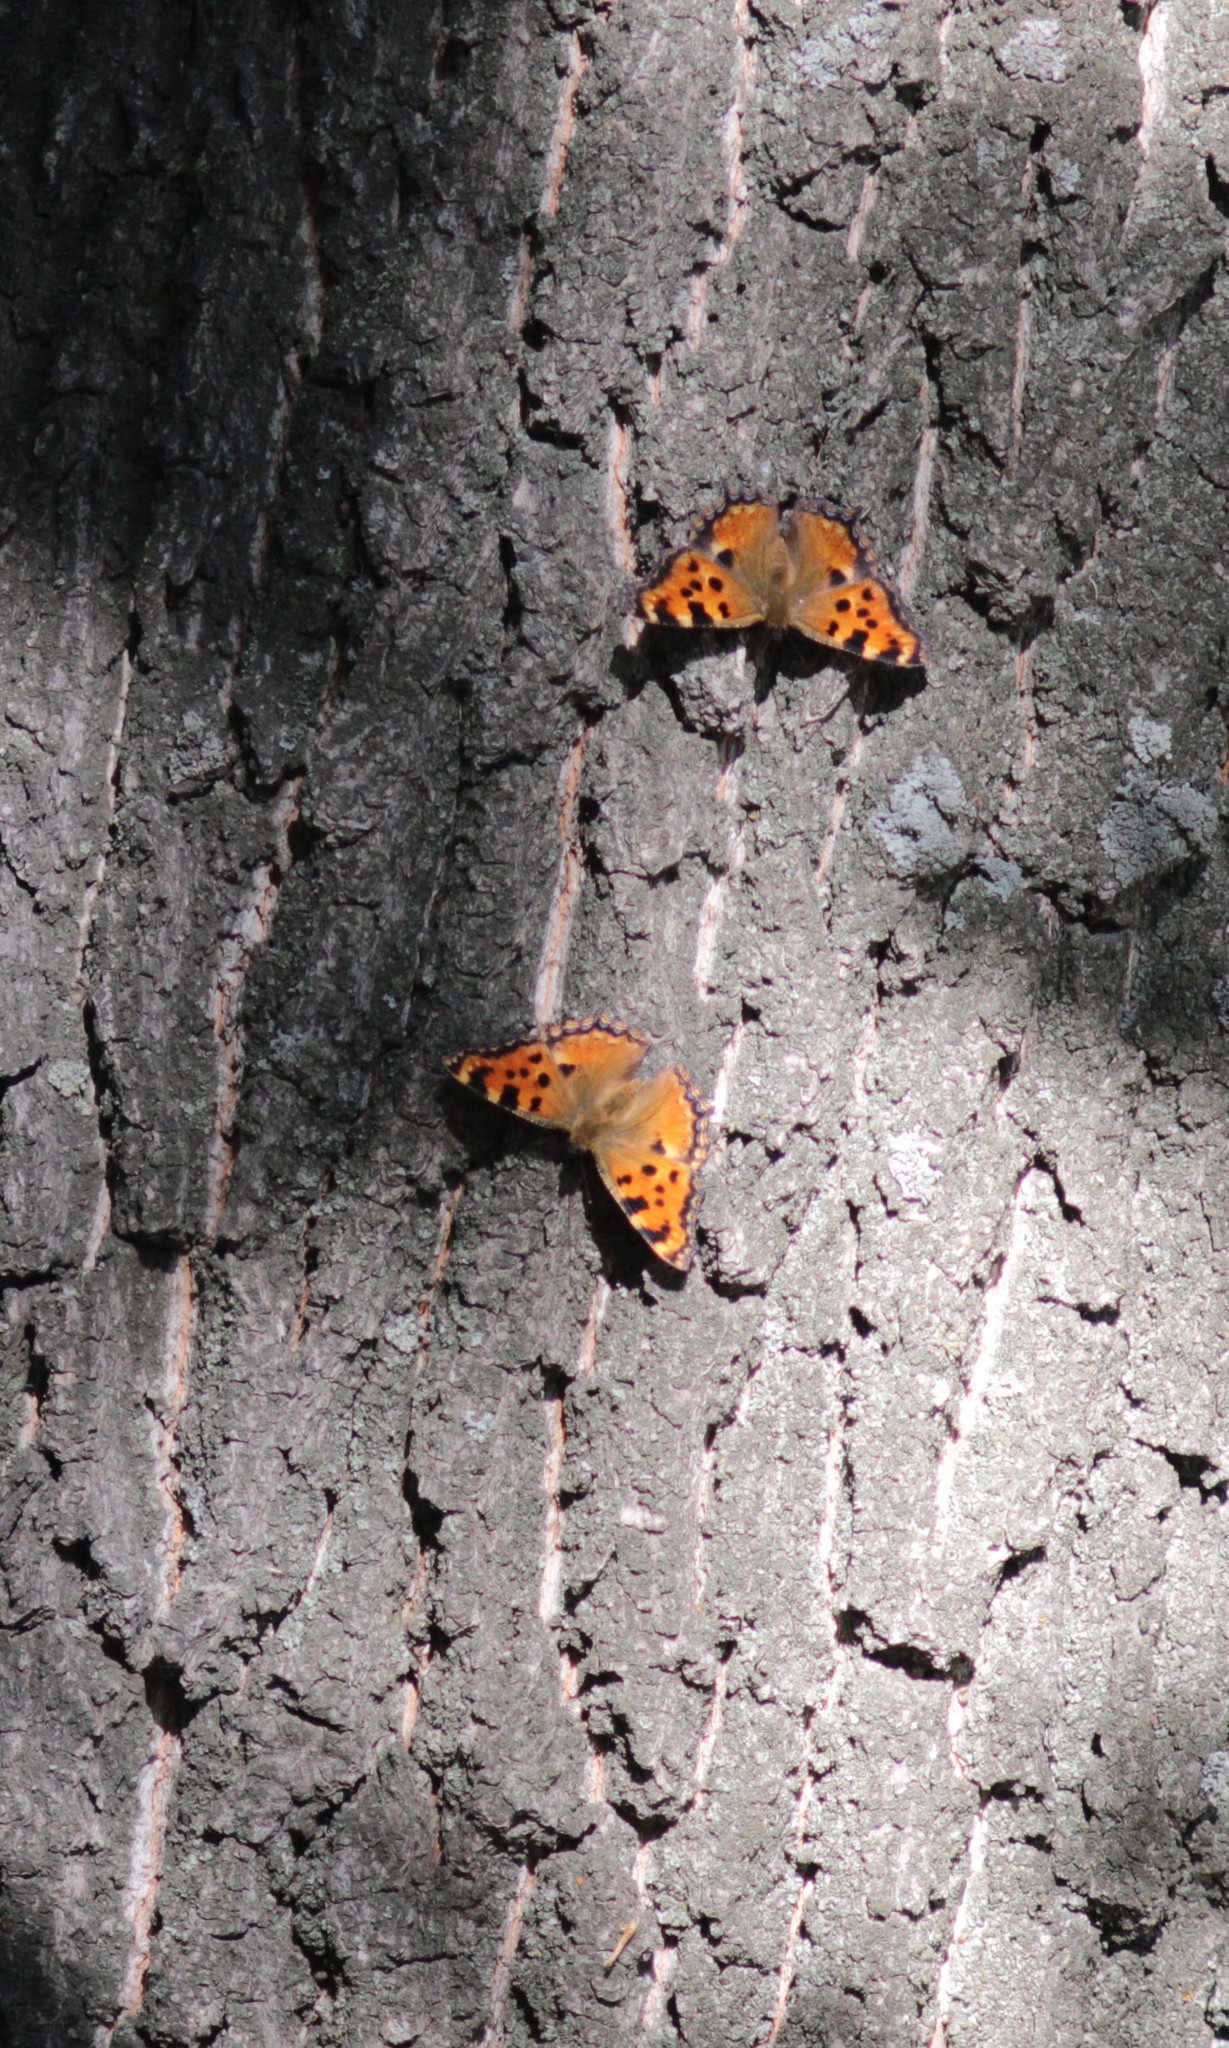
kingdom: Animalia
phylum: Arthropoda
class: Insecta
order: Lepidoptera
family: Nymphalidae
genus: Nymphalis
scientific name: Nymphalis polychloros
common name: Large tortoiseshell
